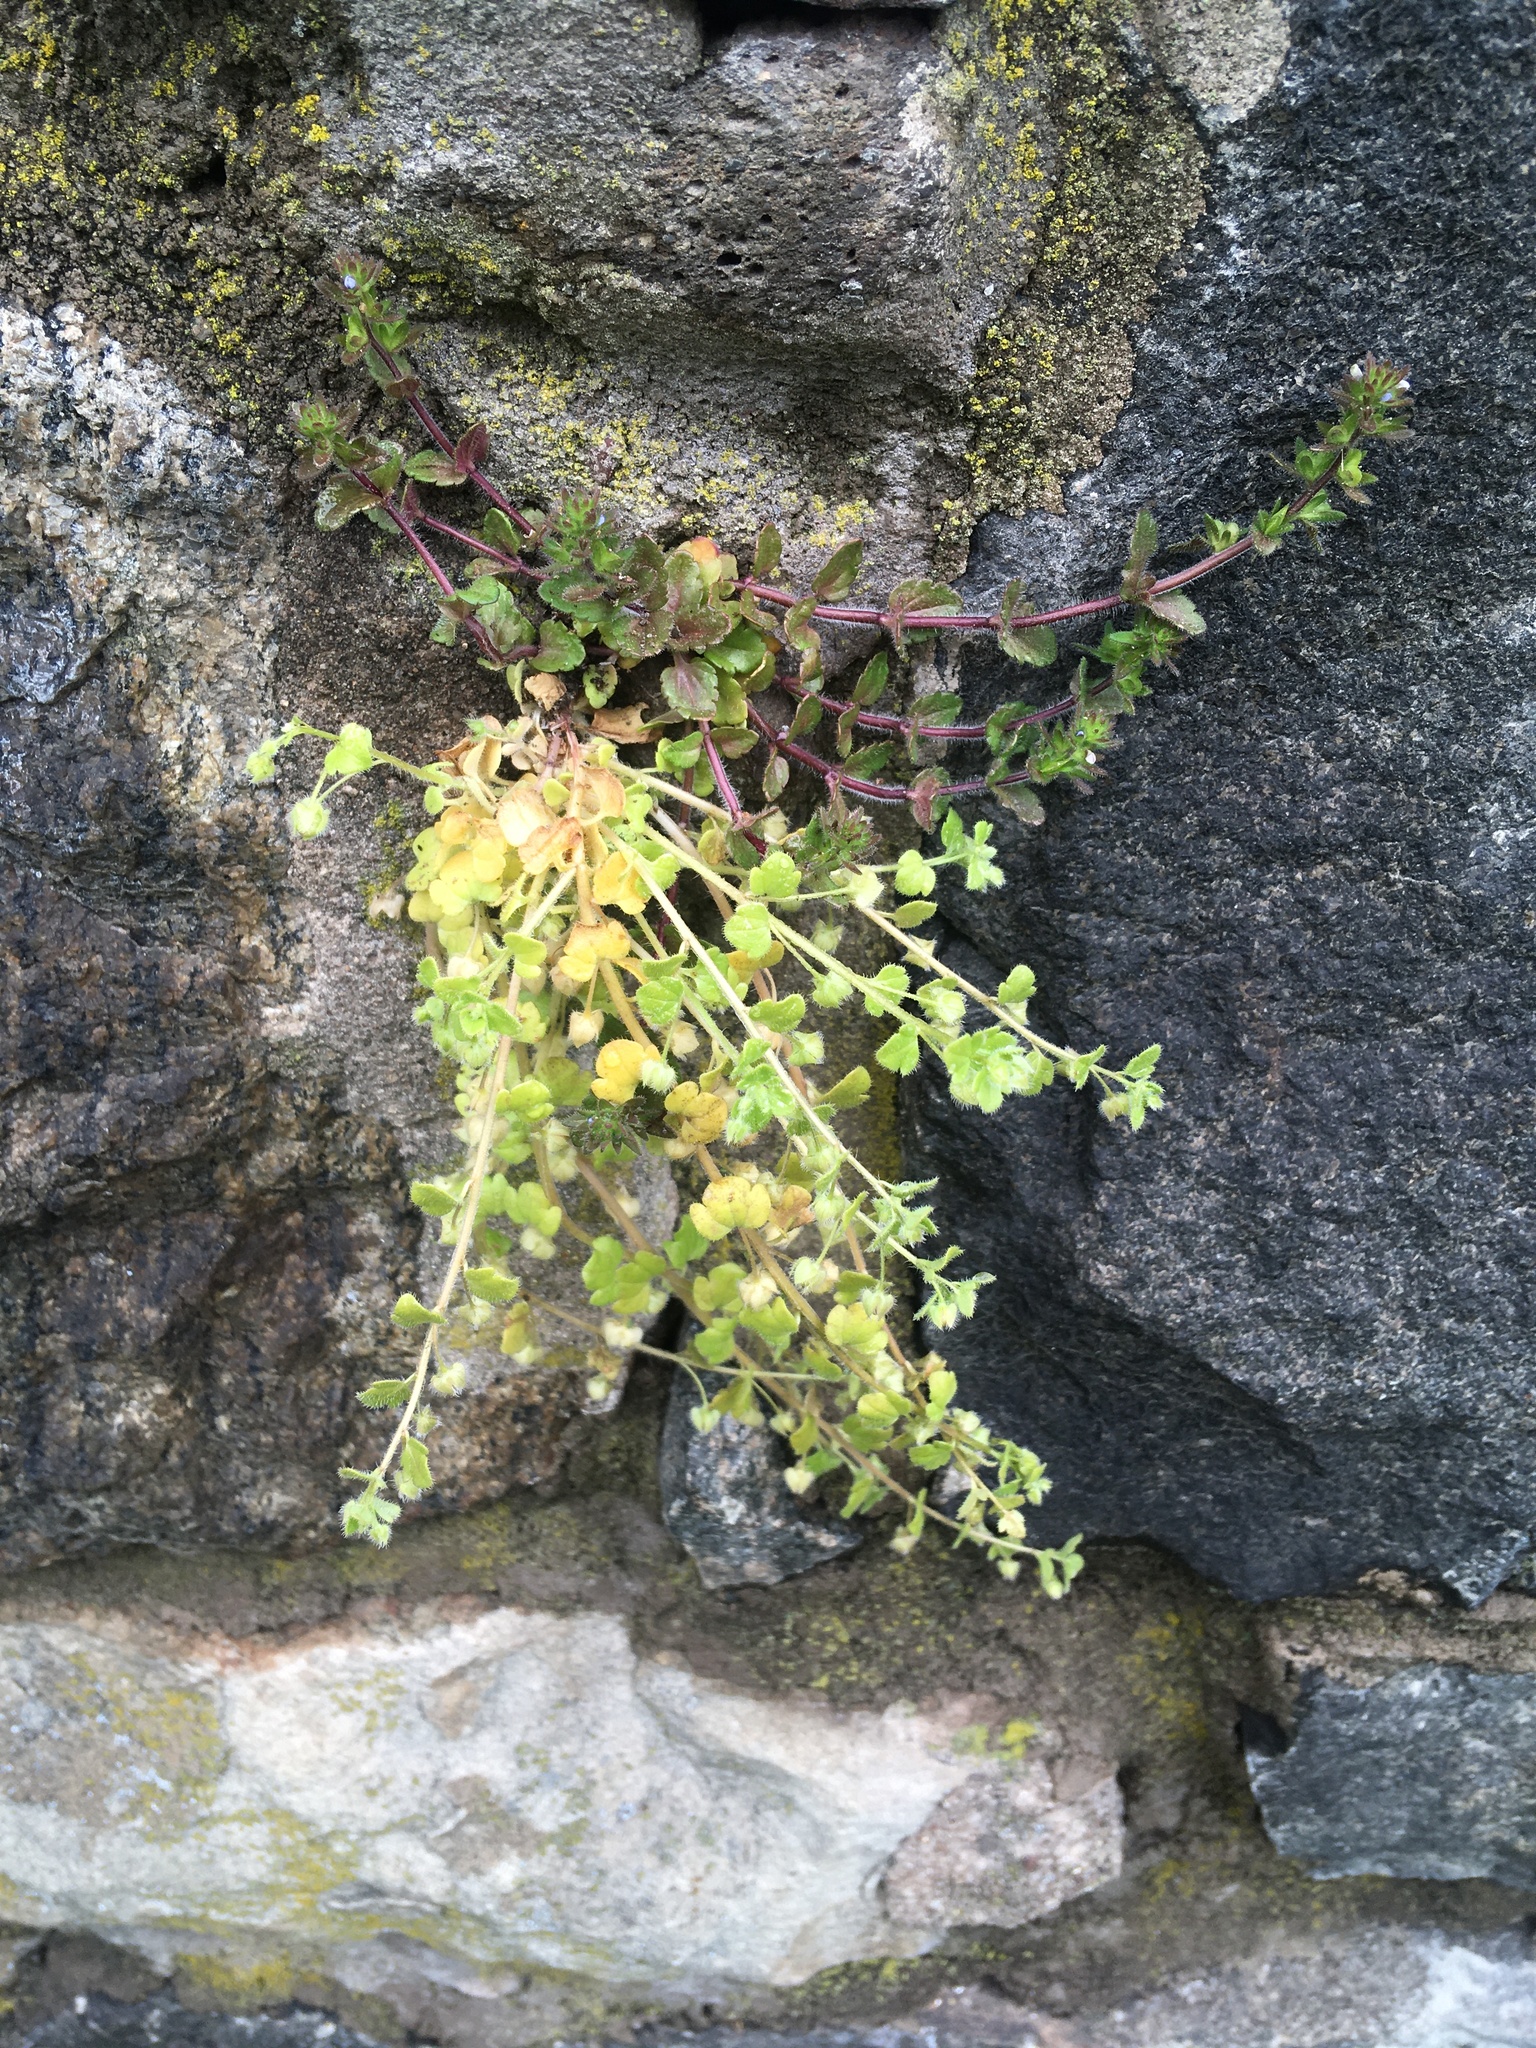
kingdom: Plantae
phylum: Tracheophyta
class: Magnoliopsida
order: Lamiales
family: Plantaginaceae
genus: Veronica
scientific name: Veronica sublobata
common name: False ivy-leaved speedwell
